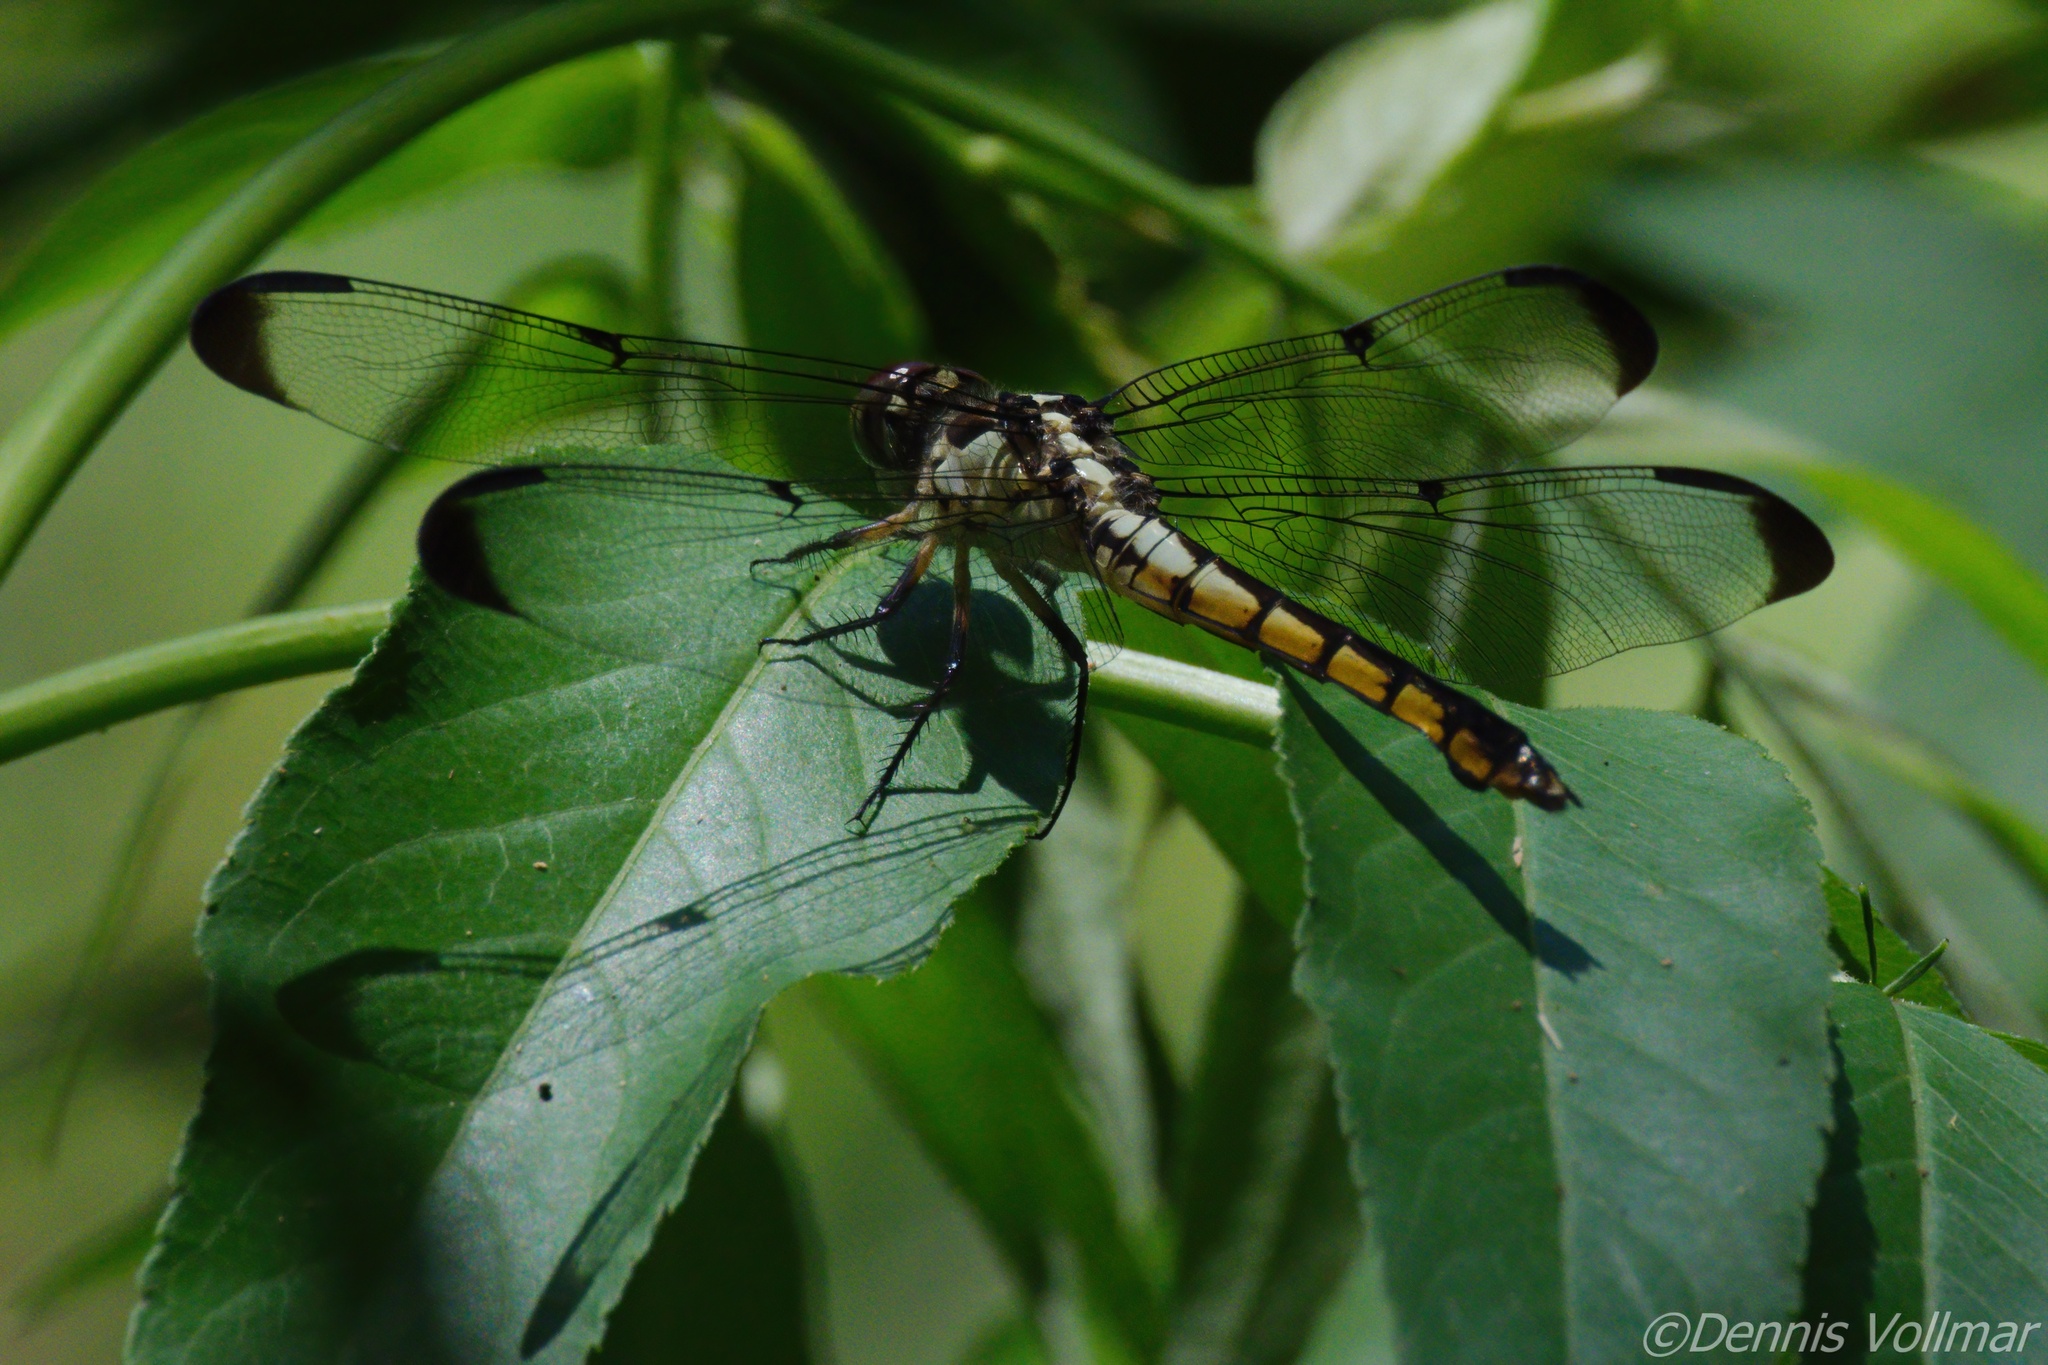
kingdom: Animalia
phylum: Arthropoda
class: Insecta
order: Odonata
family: Libellulidae
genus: Libellula
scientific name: Libellula vibrans
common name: Great blue skimmer
